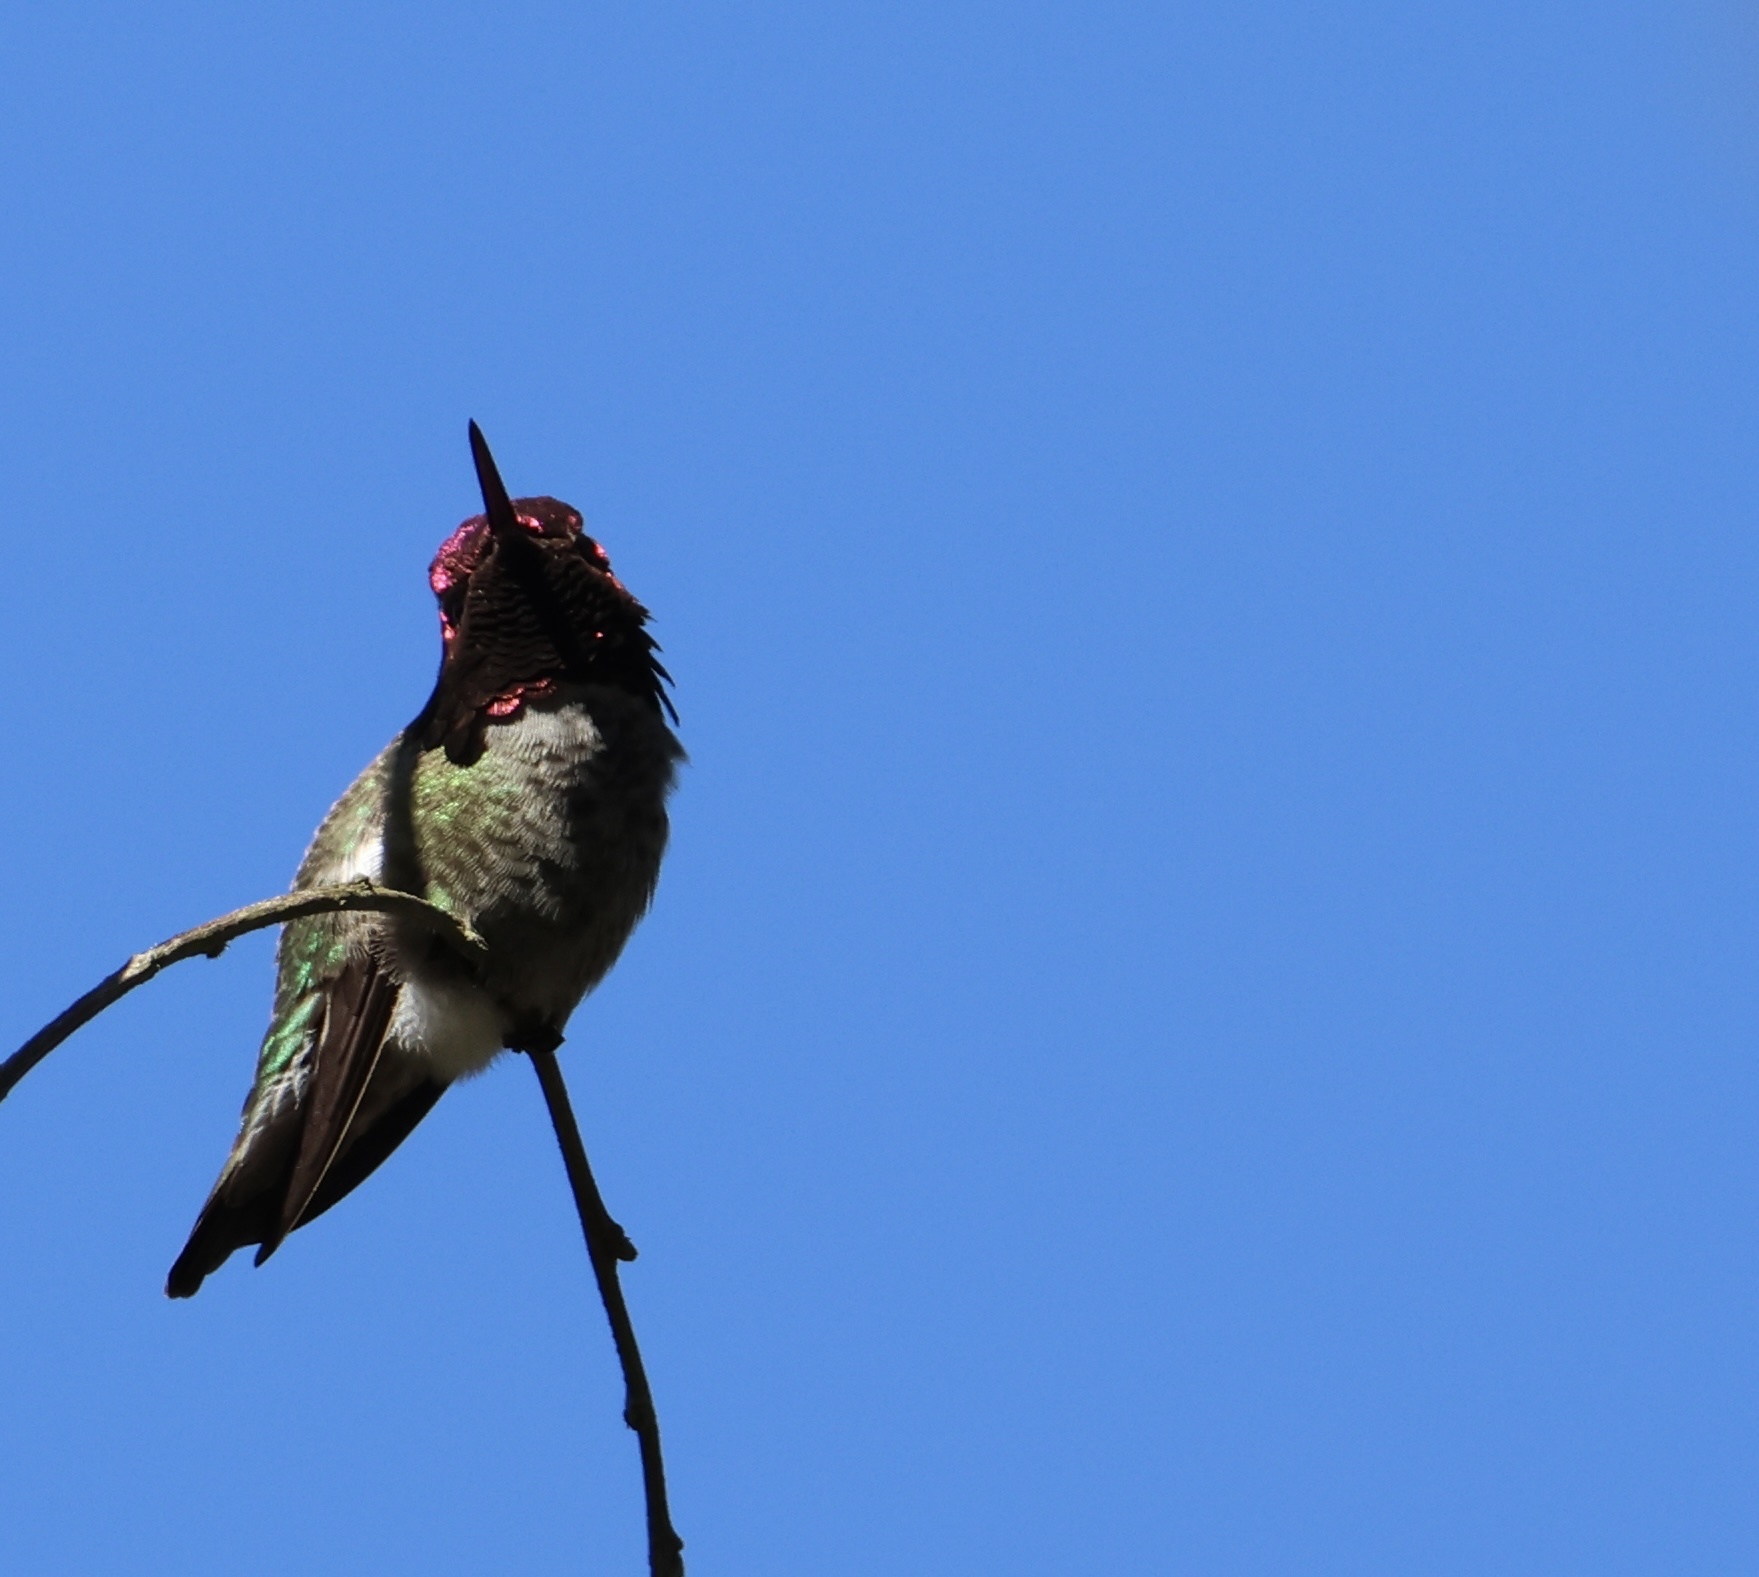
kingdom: Animalia
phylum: Chordata
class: Aves
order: Apodiformes
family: Trochilidae
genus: Calypte
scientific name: Calypte anna
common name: Anna's hummingbird
